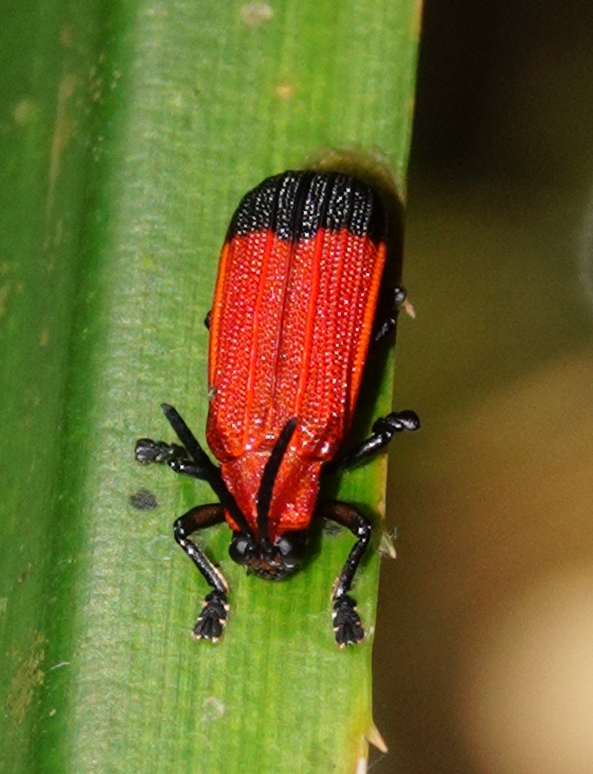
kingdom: Animalia
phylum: Arthropoda
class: Insecta
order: Coleoptera
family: Chrysomelidae
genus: Agonita
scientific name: Agonita apicipennis
